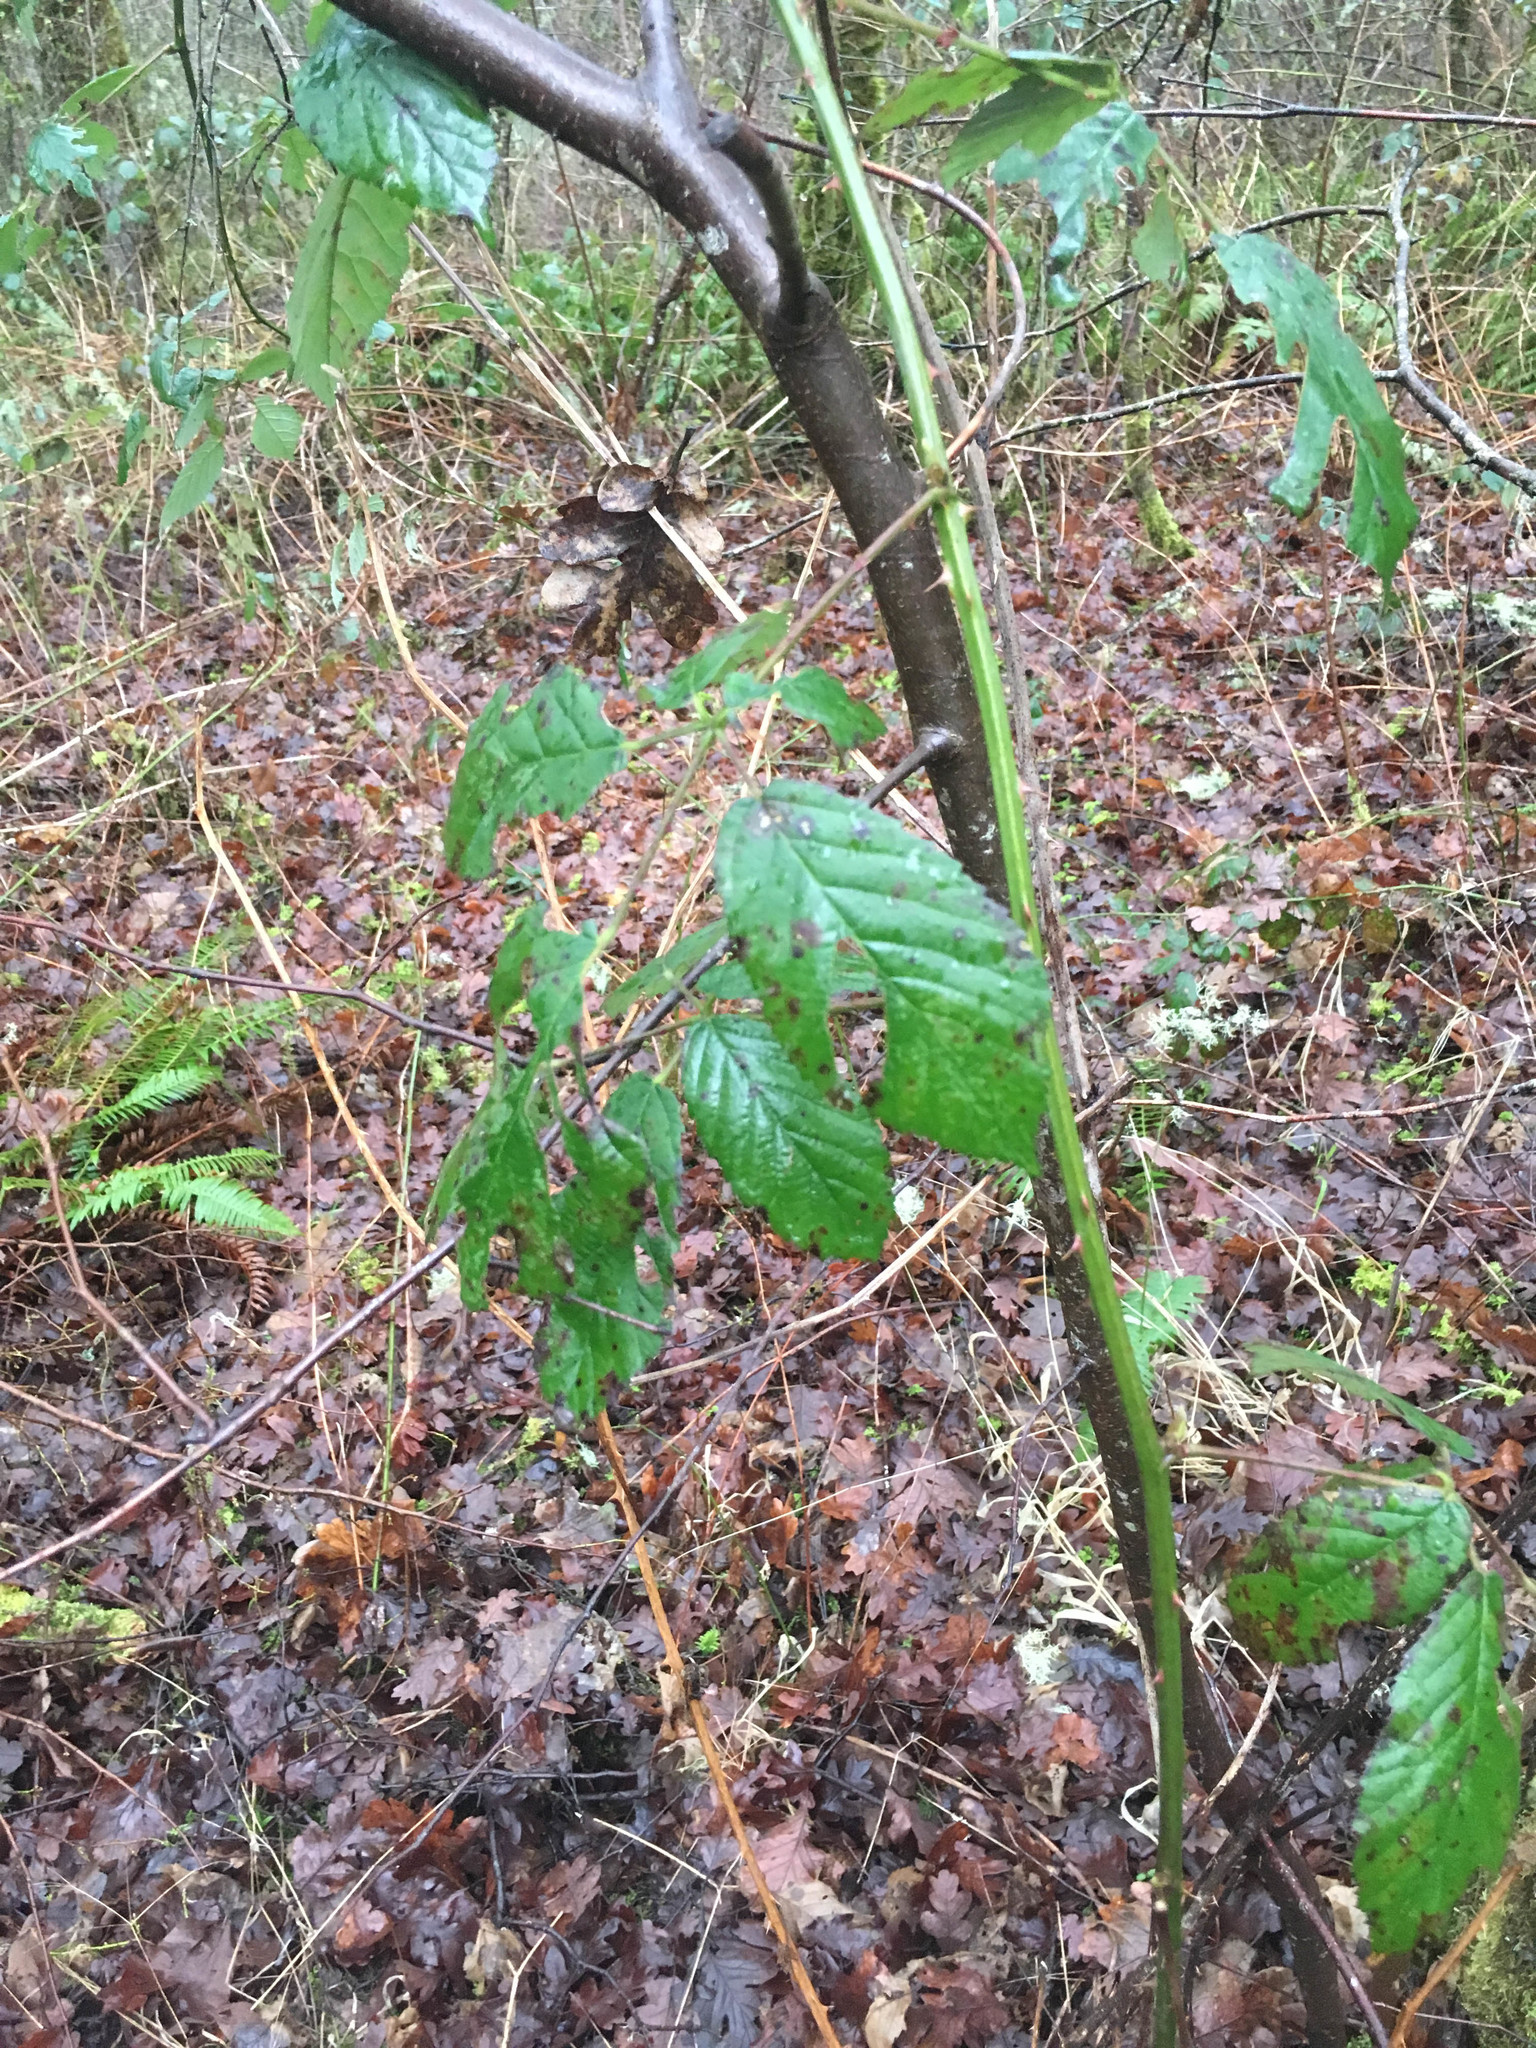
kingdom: Plantae
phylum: Tracheophyta
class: Magnoliopsida
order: Rosales
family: Rosaceae
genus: Rubus
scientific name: Rubus armeniacus
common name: Himalayan blackberry
